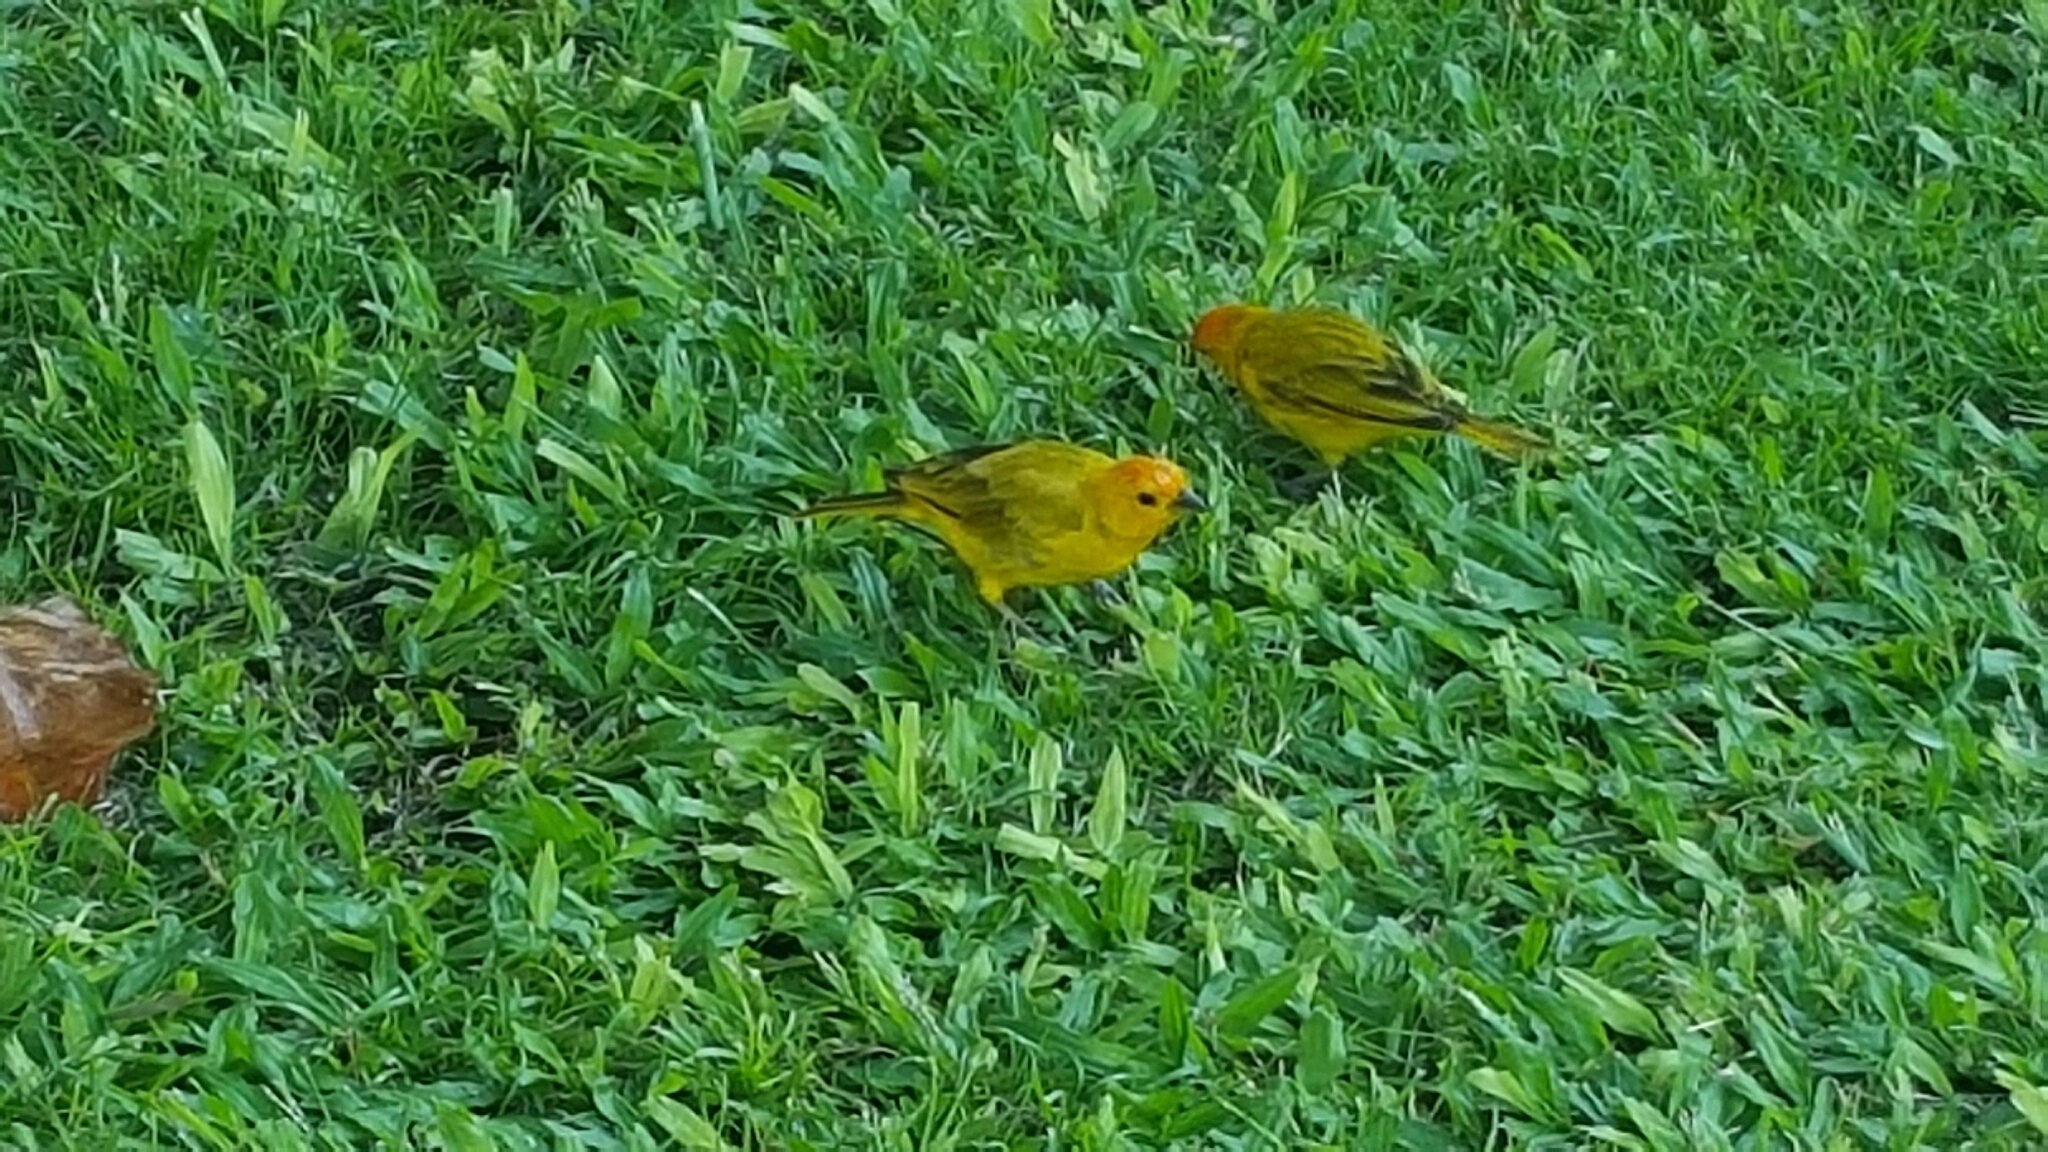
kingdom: Animalia
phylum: Chordata
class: Aves
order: Passeriformes
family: Thraupidae
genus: Sicalis
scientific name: Sicalis flaveola
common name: Saffron finch
